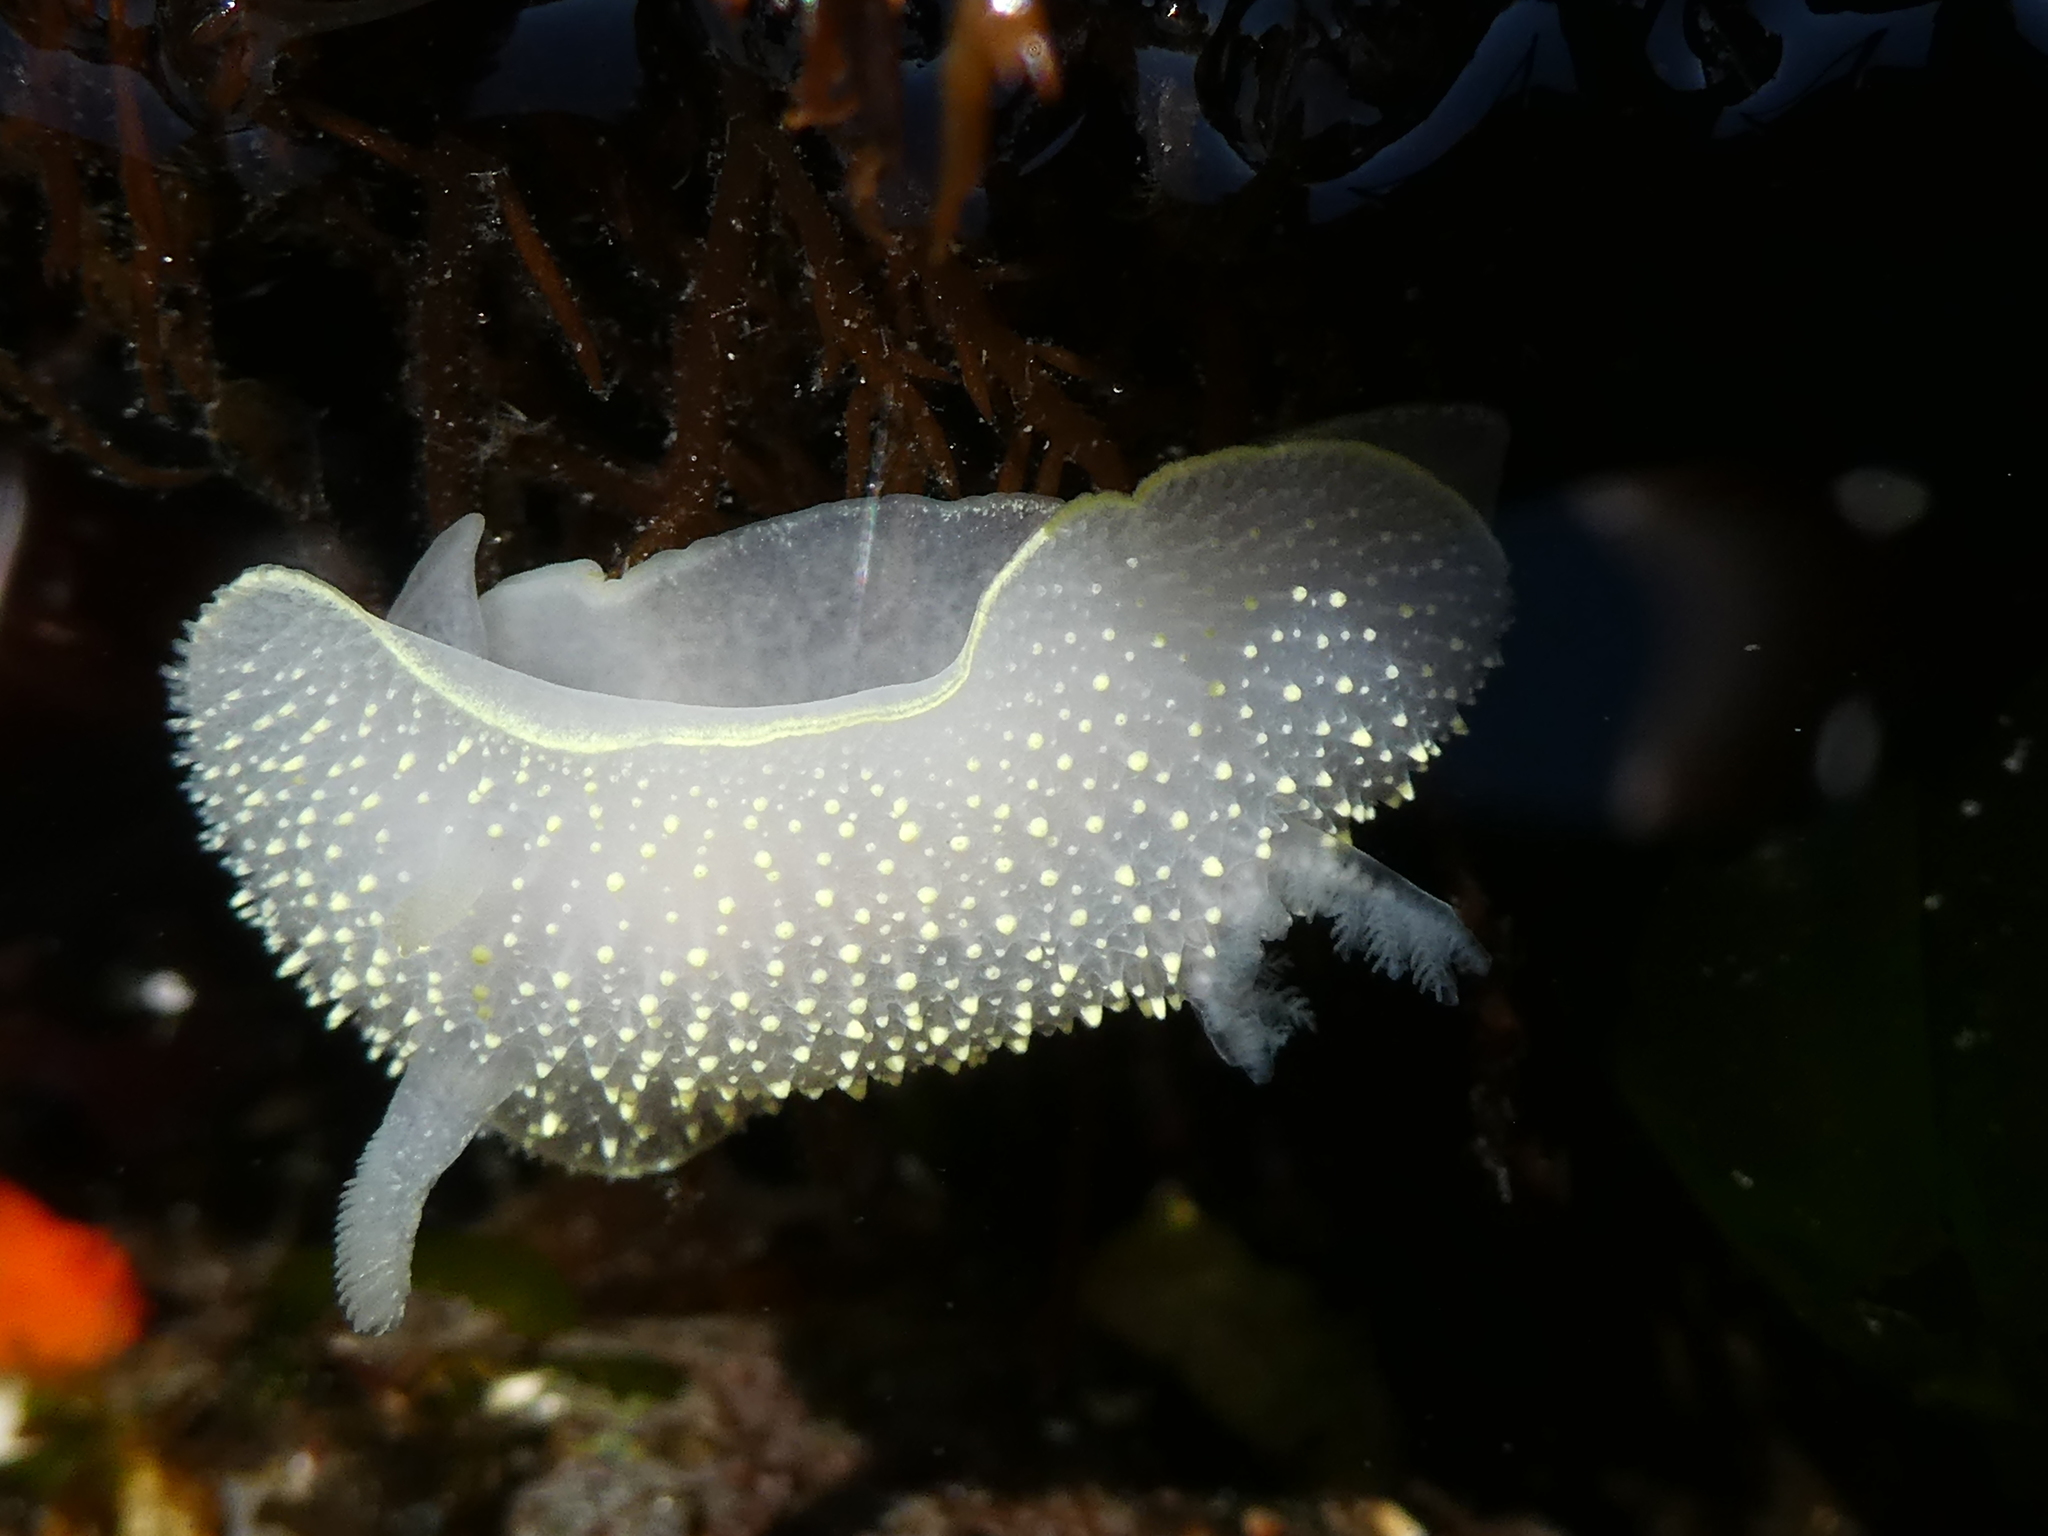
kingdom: Animalia
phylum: Mollusca
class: Gastropoda
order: Nudibranchia
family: Onchidorididae
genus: Acanthodoris
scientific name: Acanthodoris hudsoni
